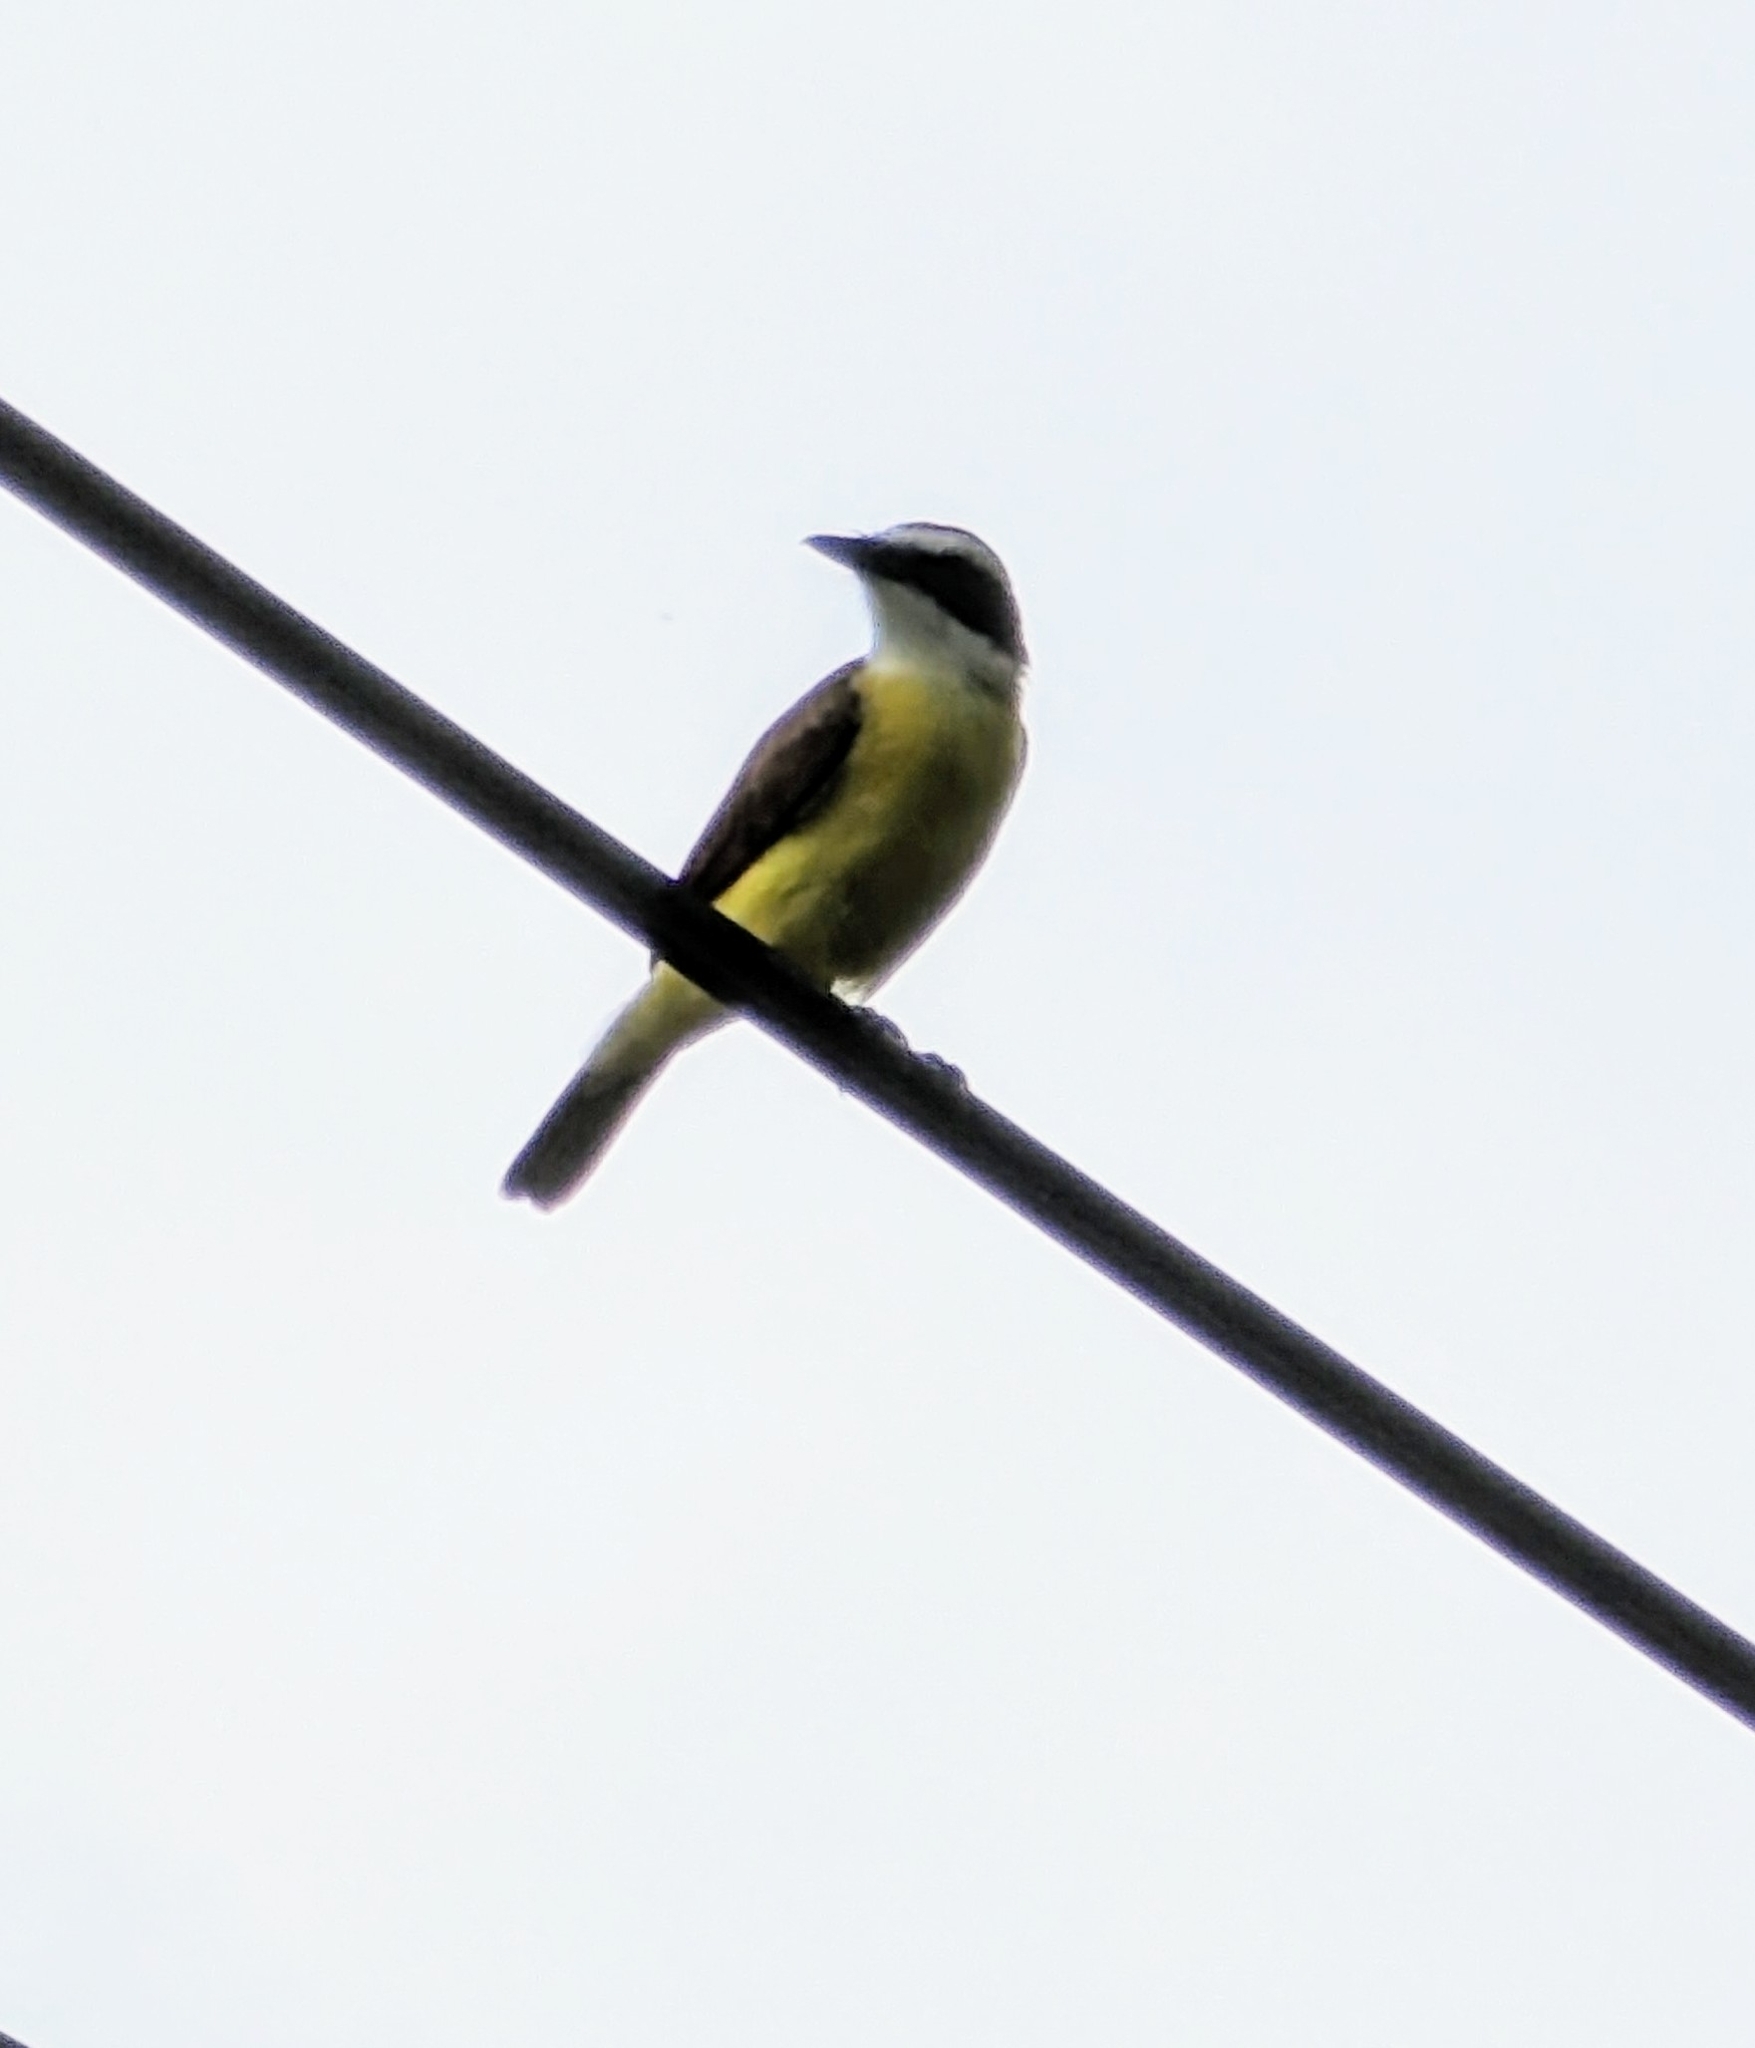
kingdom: Animalia
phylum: Chordata
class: Aves
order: Passeriformes
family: Tyrannidae
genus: Pitangus
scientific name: Pitangus sulphuratus
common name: Great kiskadee
